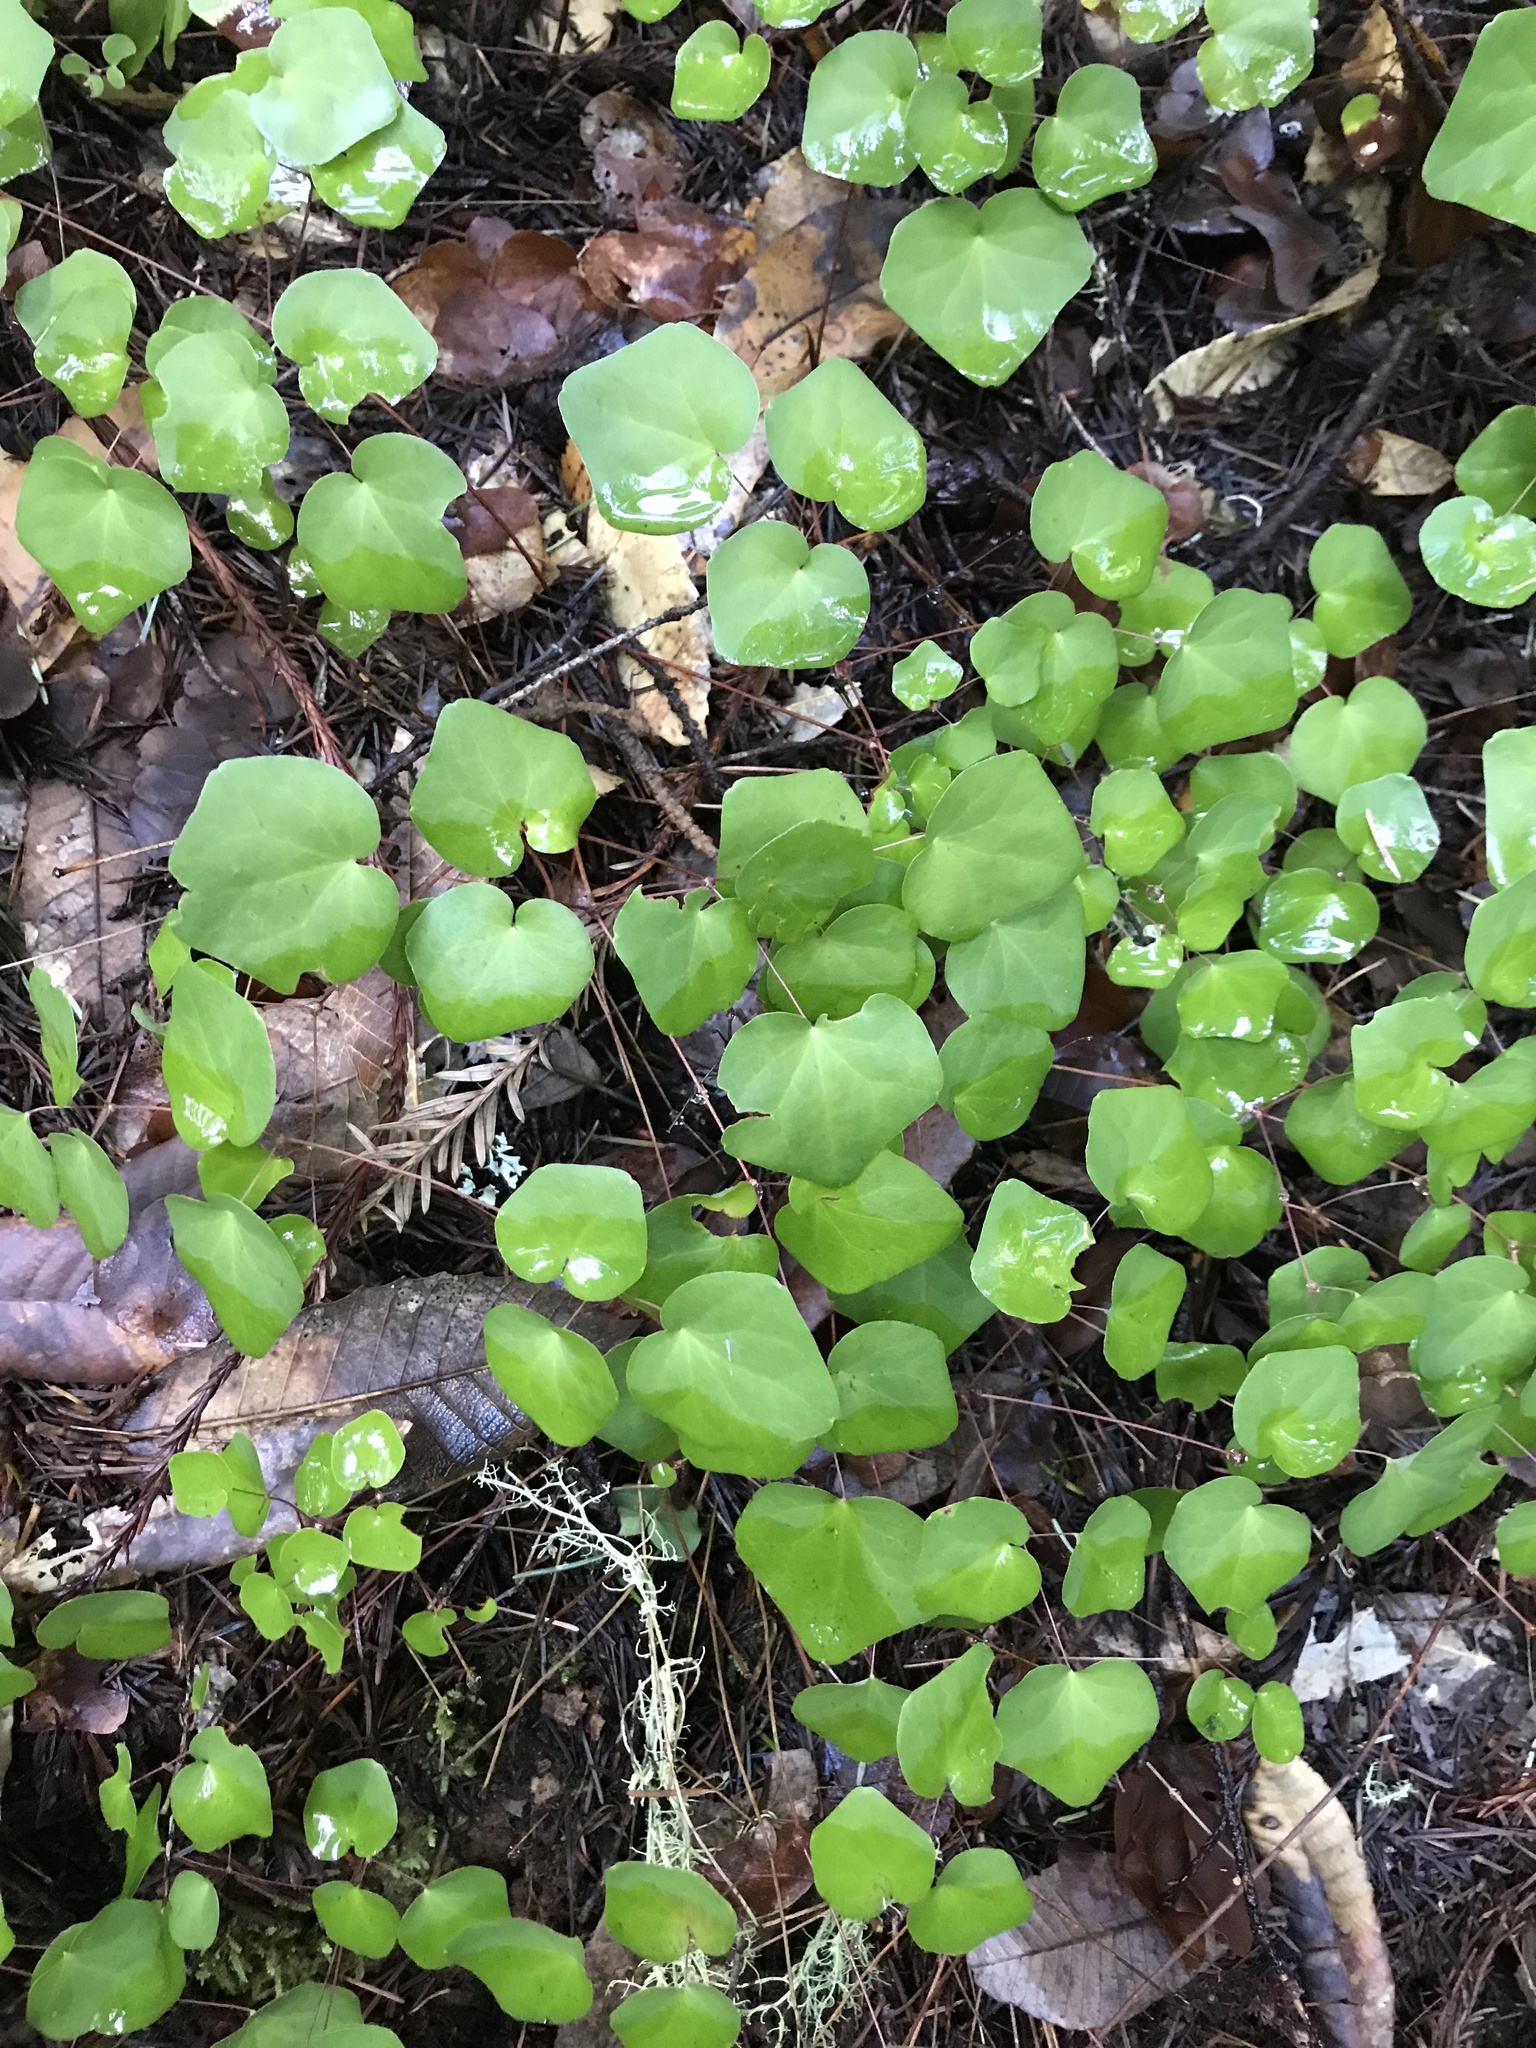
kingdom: Plantae
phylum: Tracheophyta
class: Magnoliopsida
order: Ranunculales
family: Berberidaceae
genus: Vancouveria
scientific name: Vancouveria planipetala
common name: Redwood-ivy
